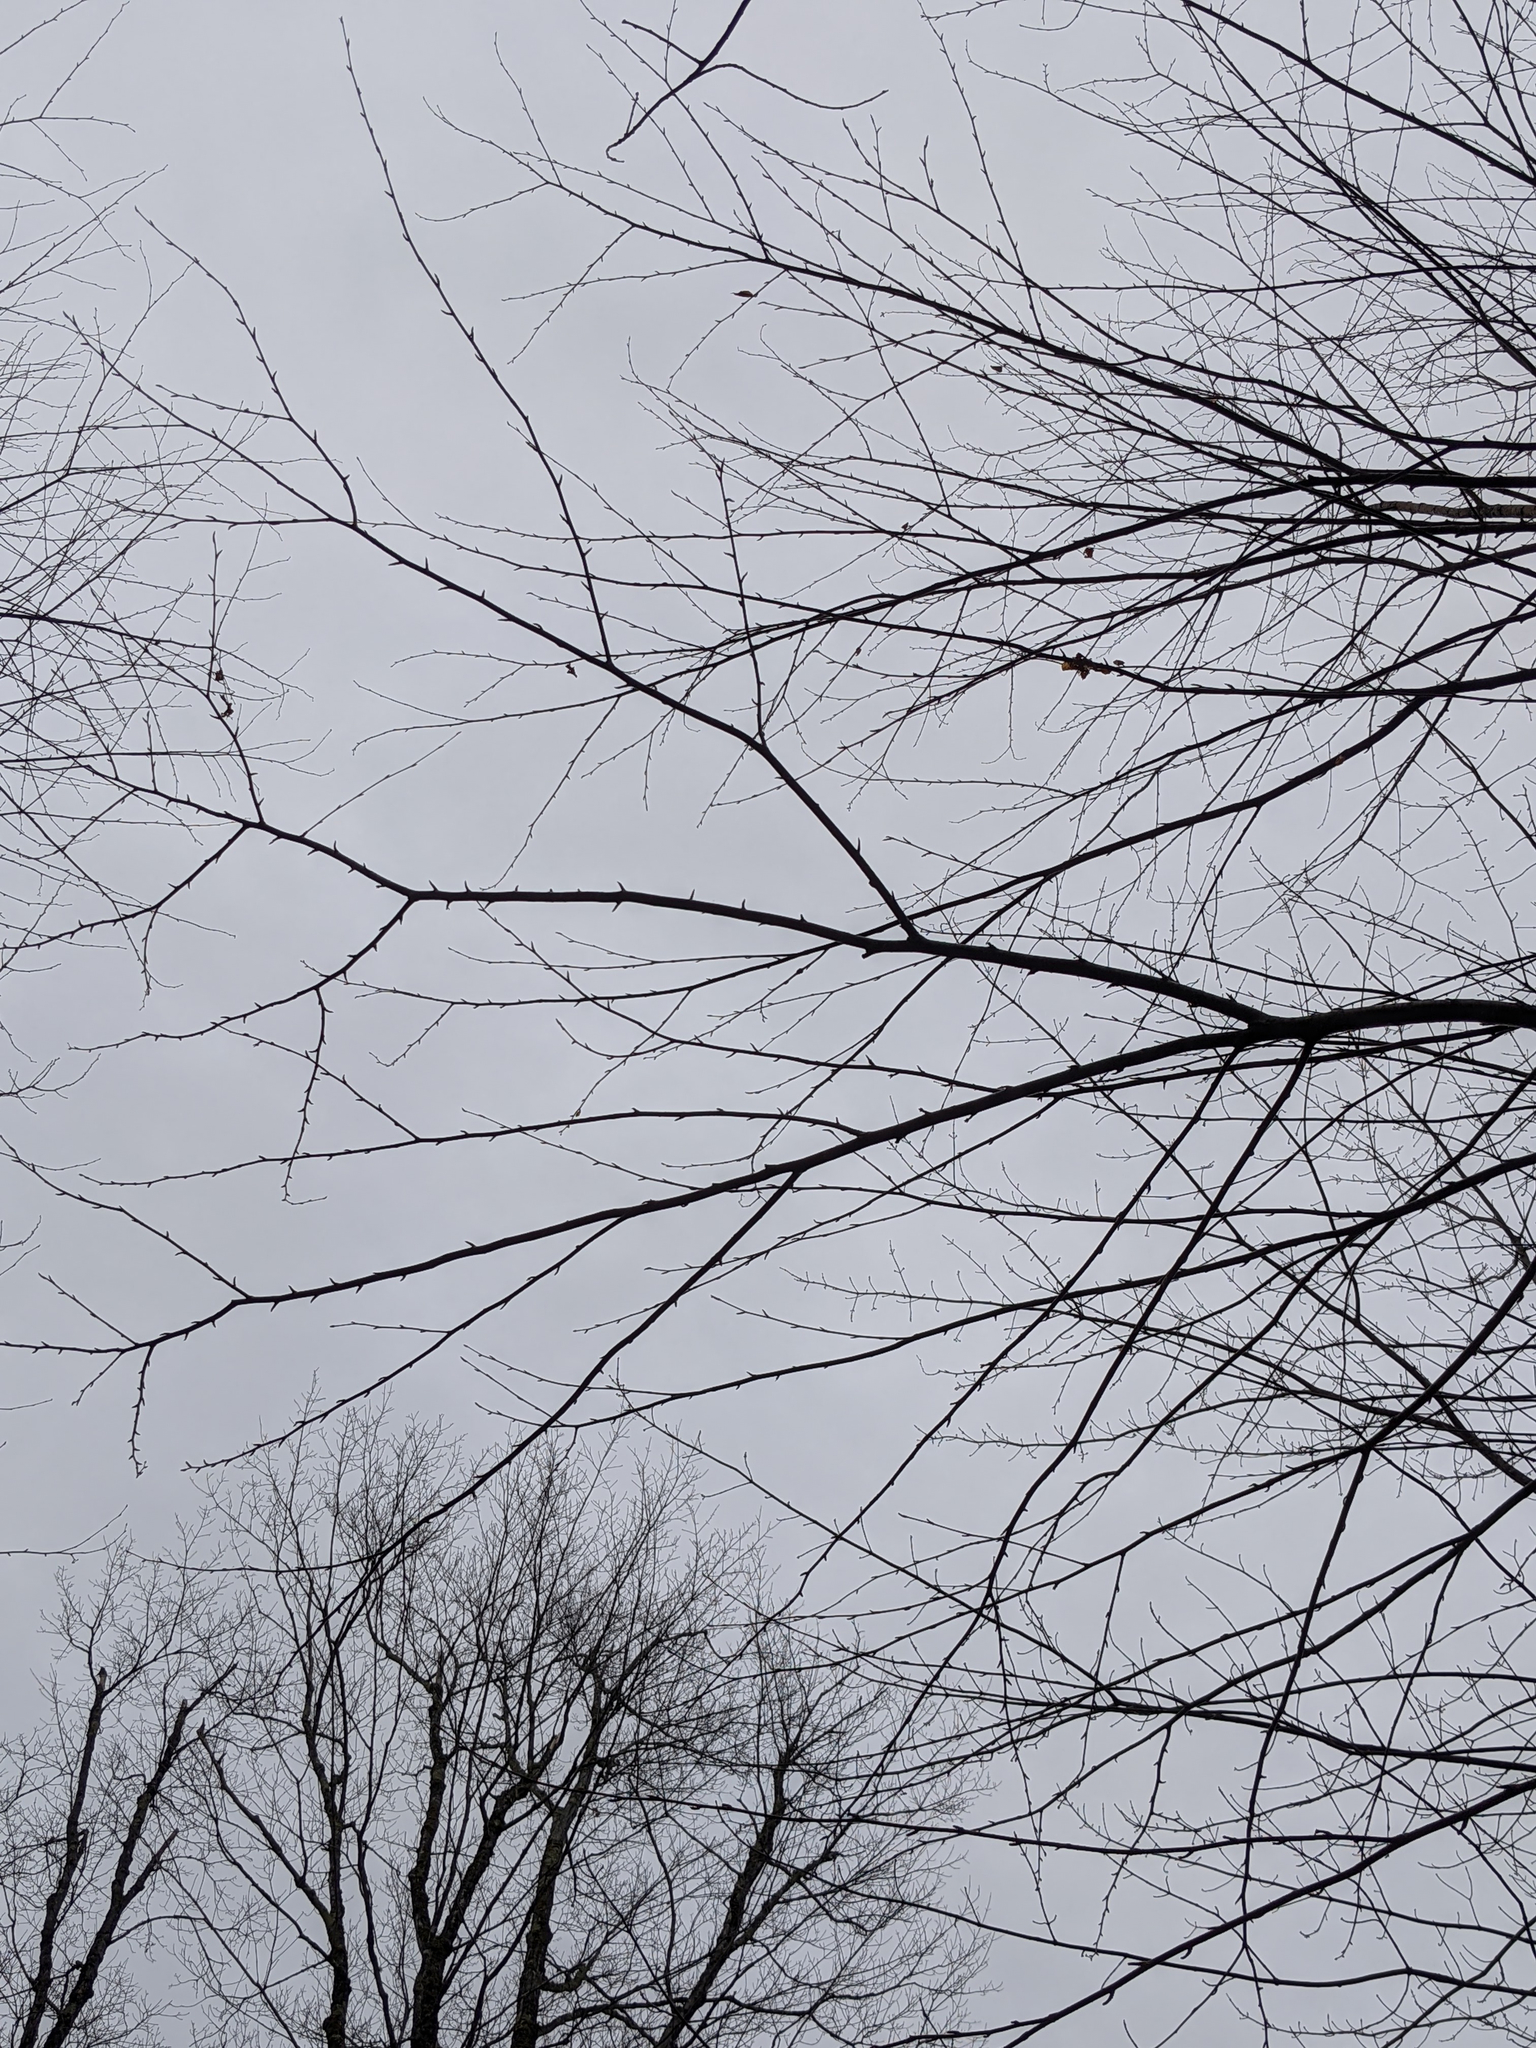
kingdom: Plantae
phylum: Tracheophyta
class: Magnoliopsida
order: Fagales
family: Betulaceae
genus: Betula
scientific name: Betula alleghaniensis
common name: Yellow birch
